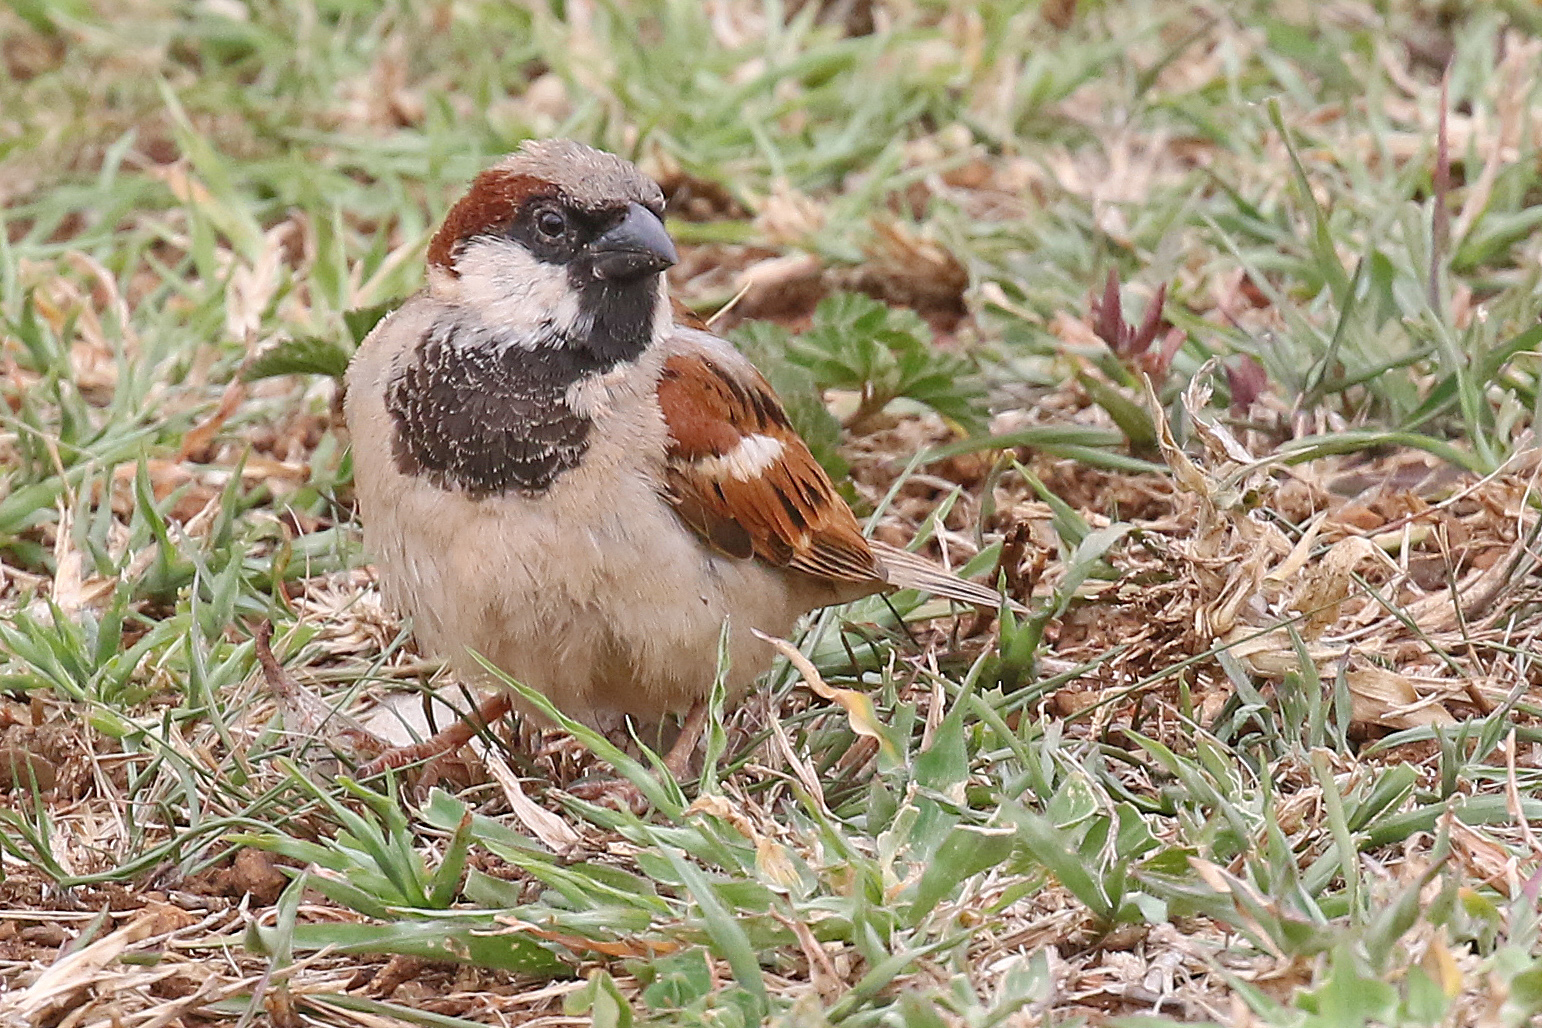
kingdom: Animalia
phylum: Chordata
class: Aves
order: Passeriformes
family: Passeridae
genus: Passer
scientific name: Passer domesticus
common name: House sparrow
